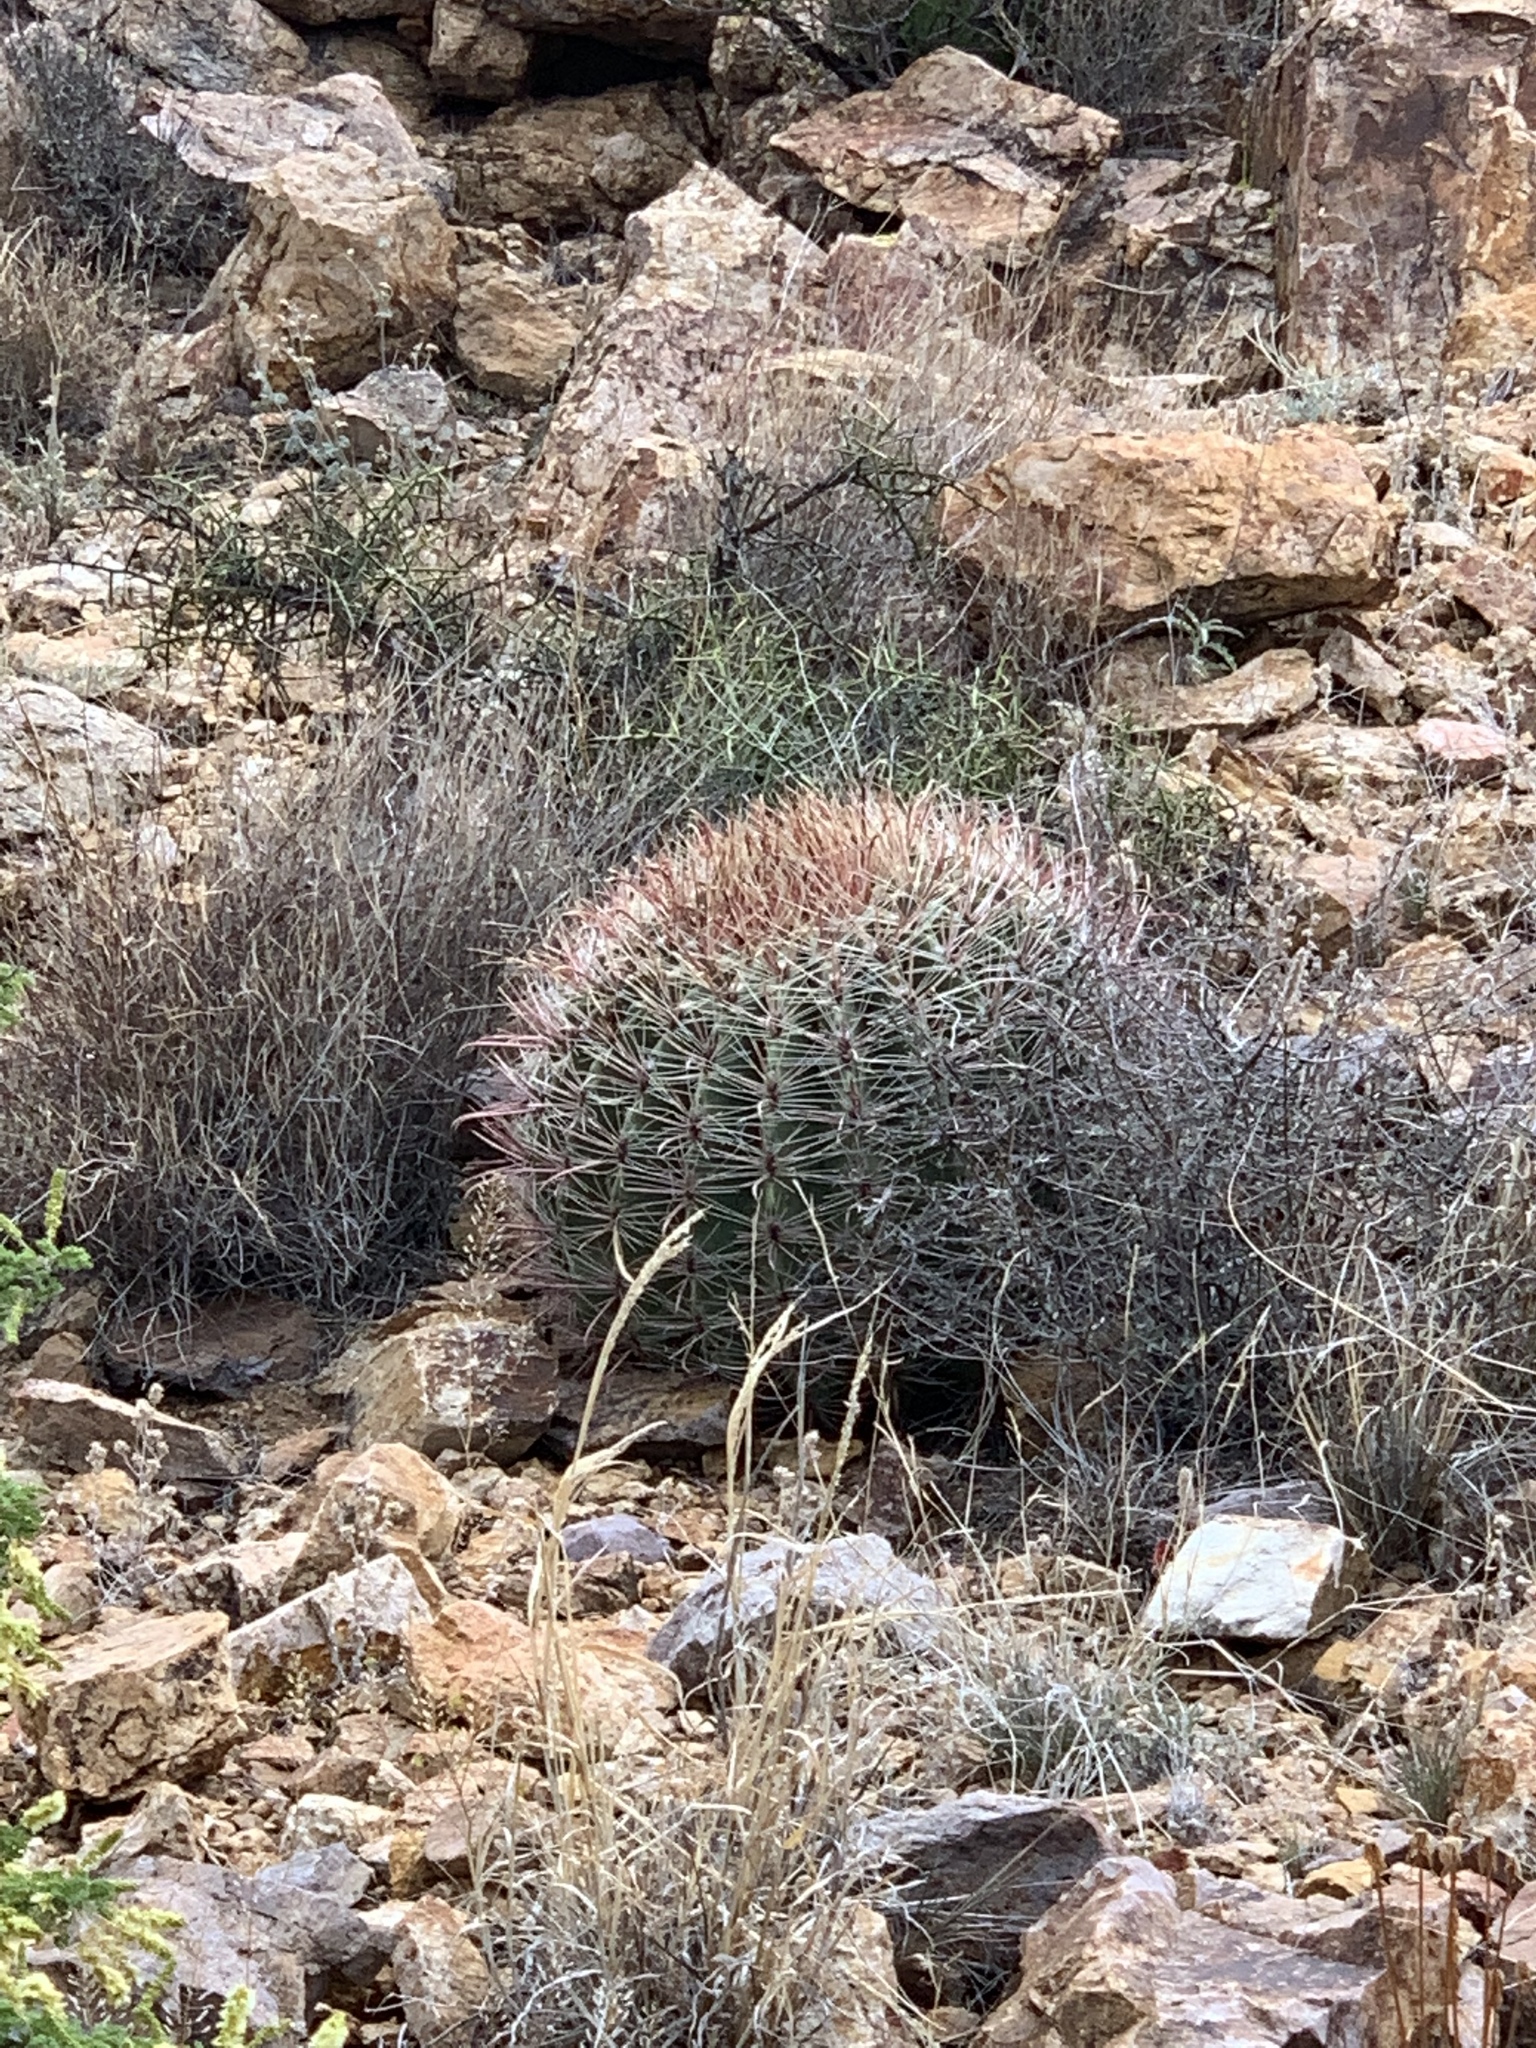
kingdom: Plantae
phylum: Tracheophyta
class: Magnoliopsida
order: Caryophyllales
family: Cactaceae
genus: Ferocactus
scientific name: Ferocactus wislizeni
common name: Candy barrel cactus
